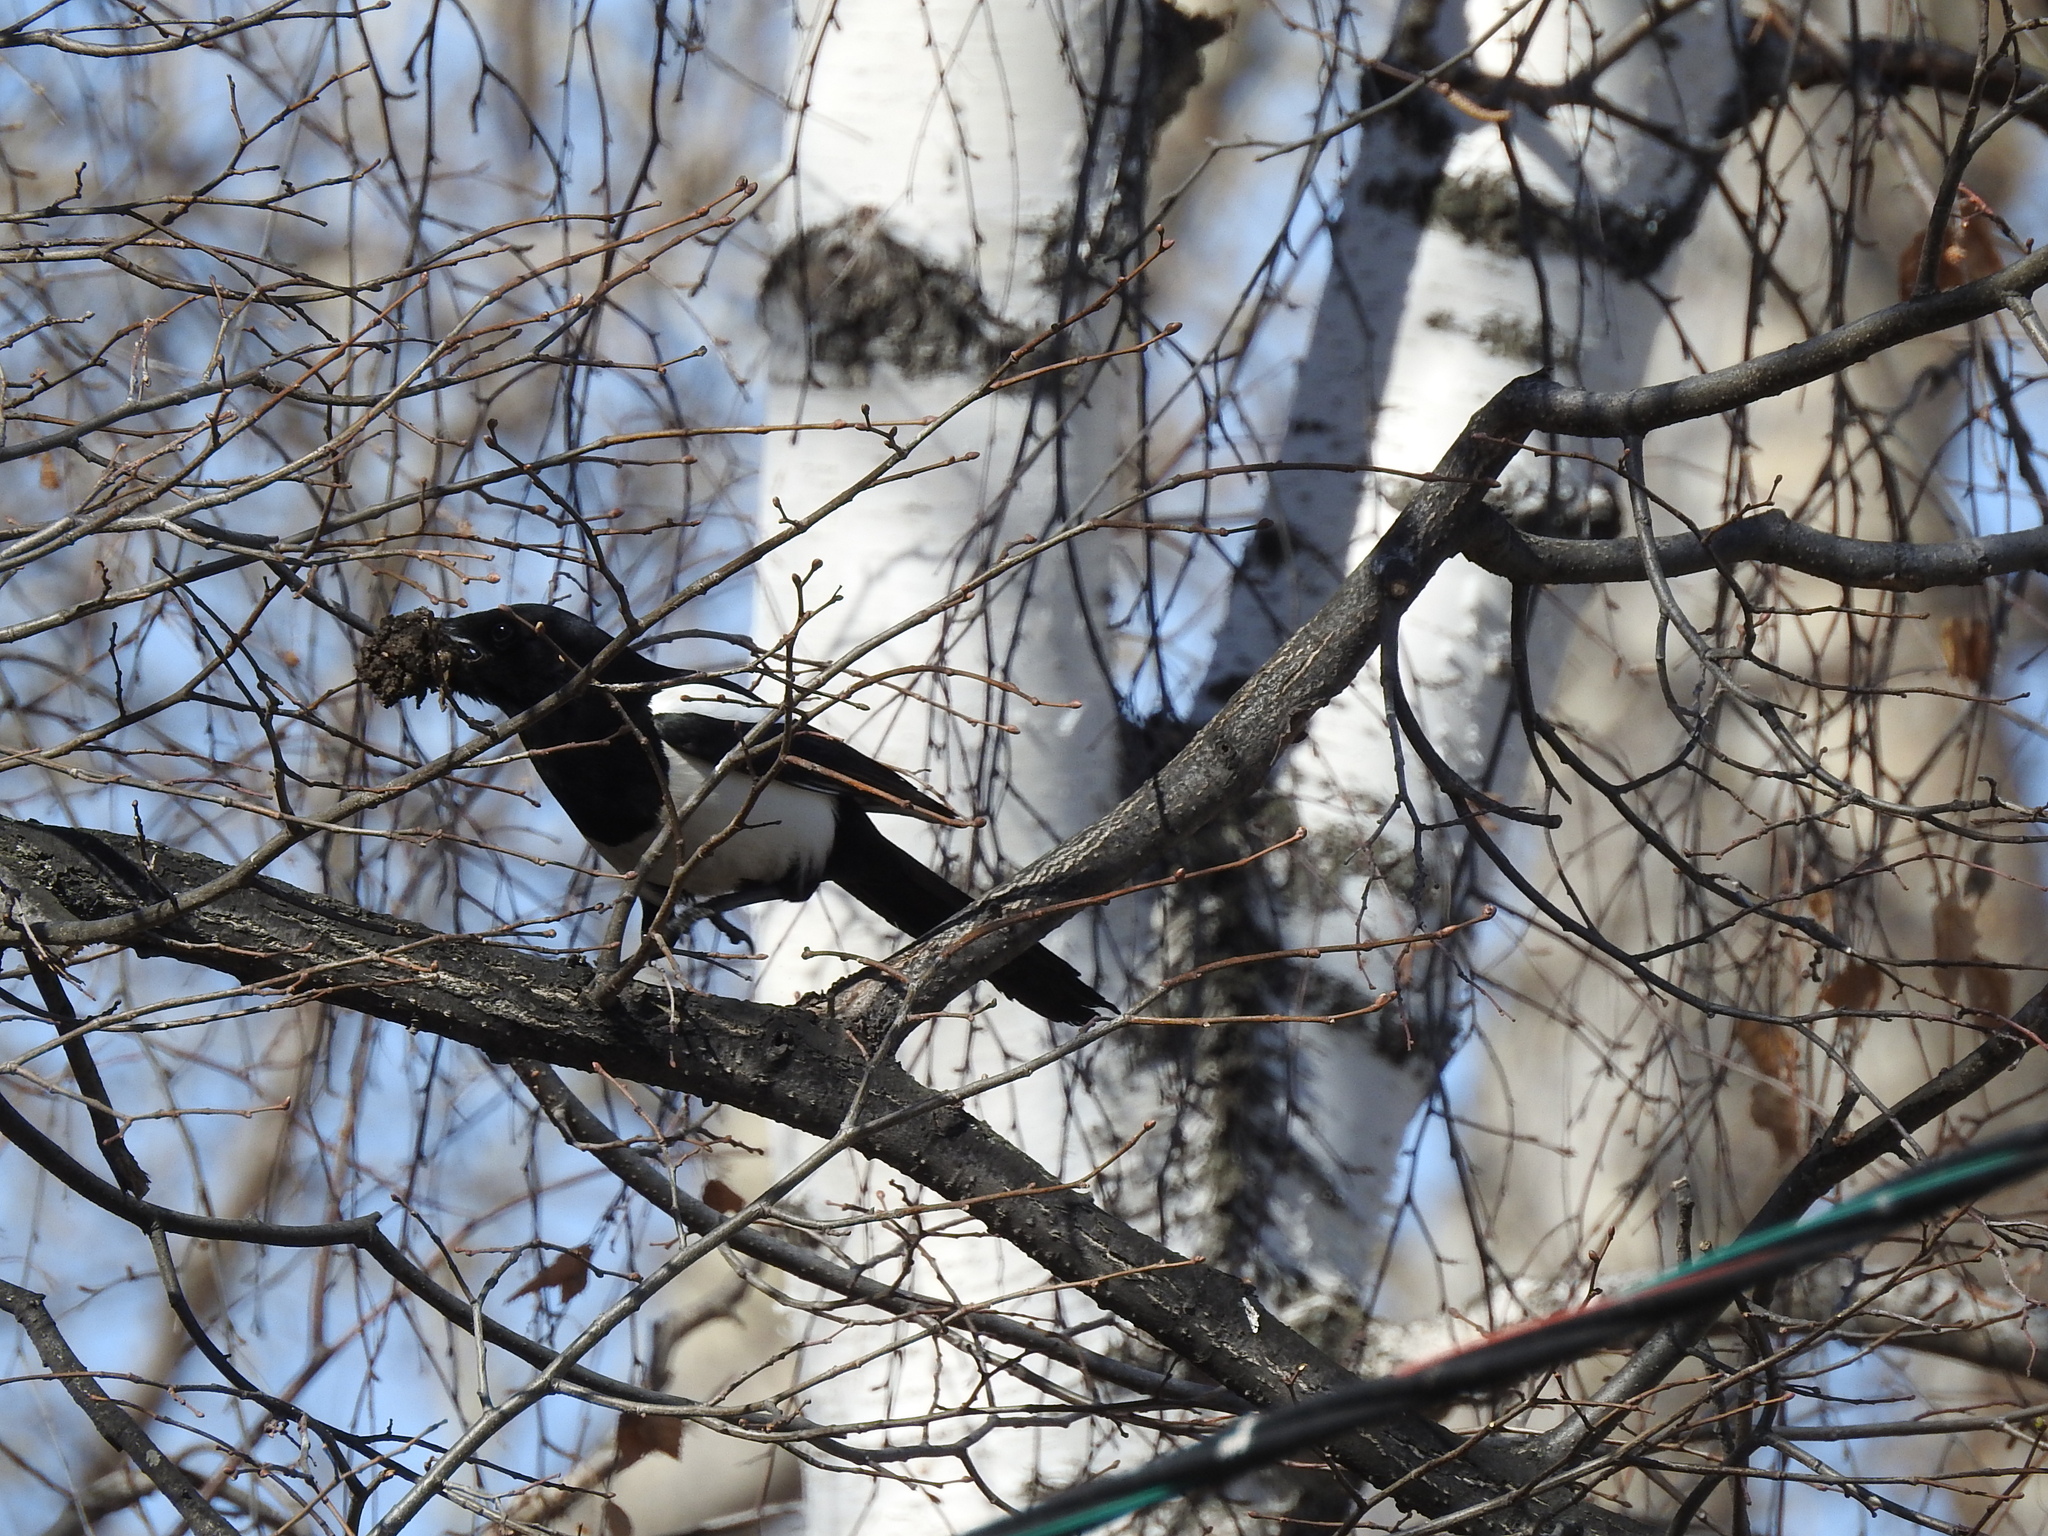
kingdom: Animalia
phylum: Chordata
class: Aves
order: Passeriformes
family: Corvidae
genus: Pica
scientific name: Pica pica
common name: Eurasian magpie
